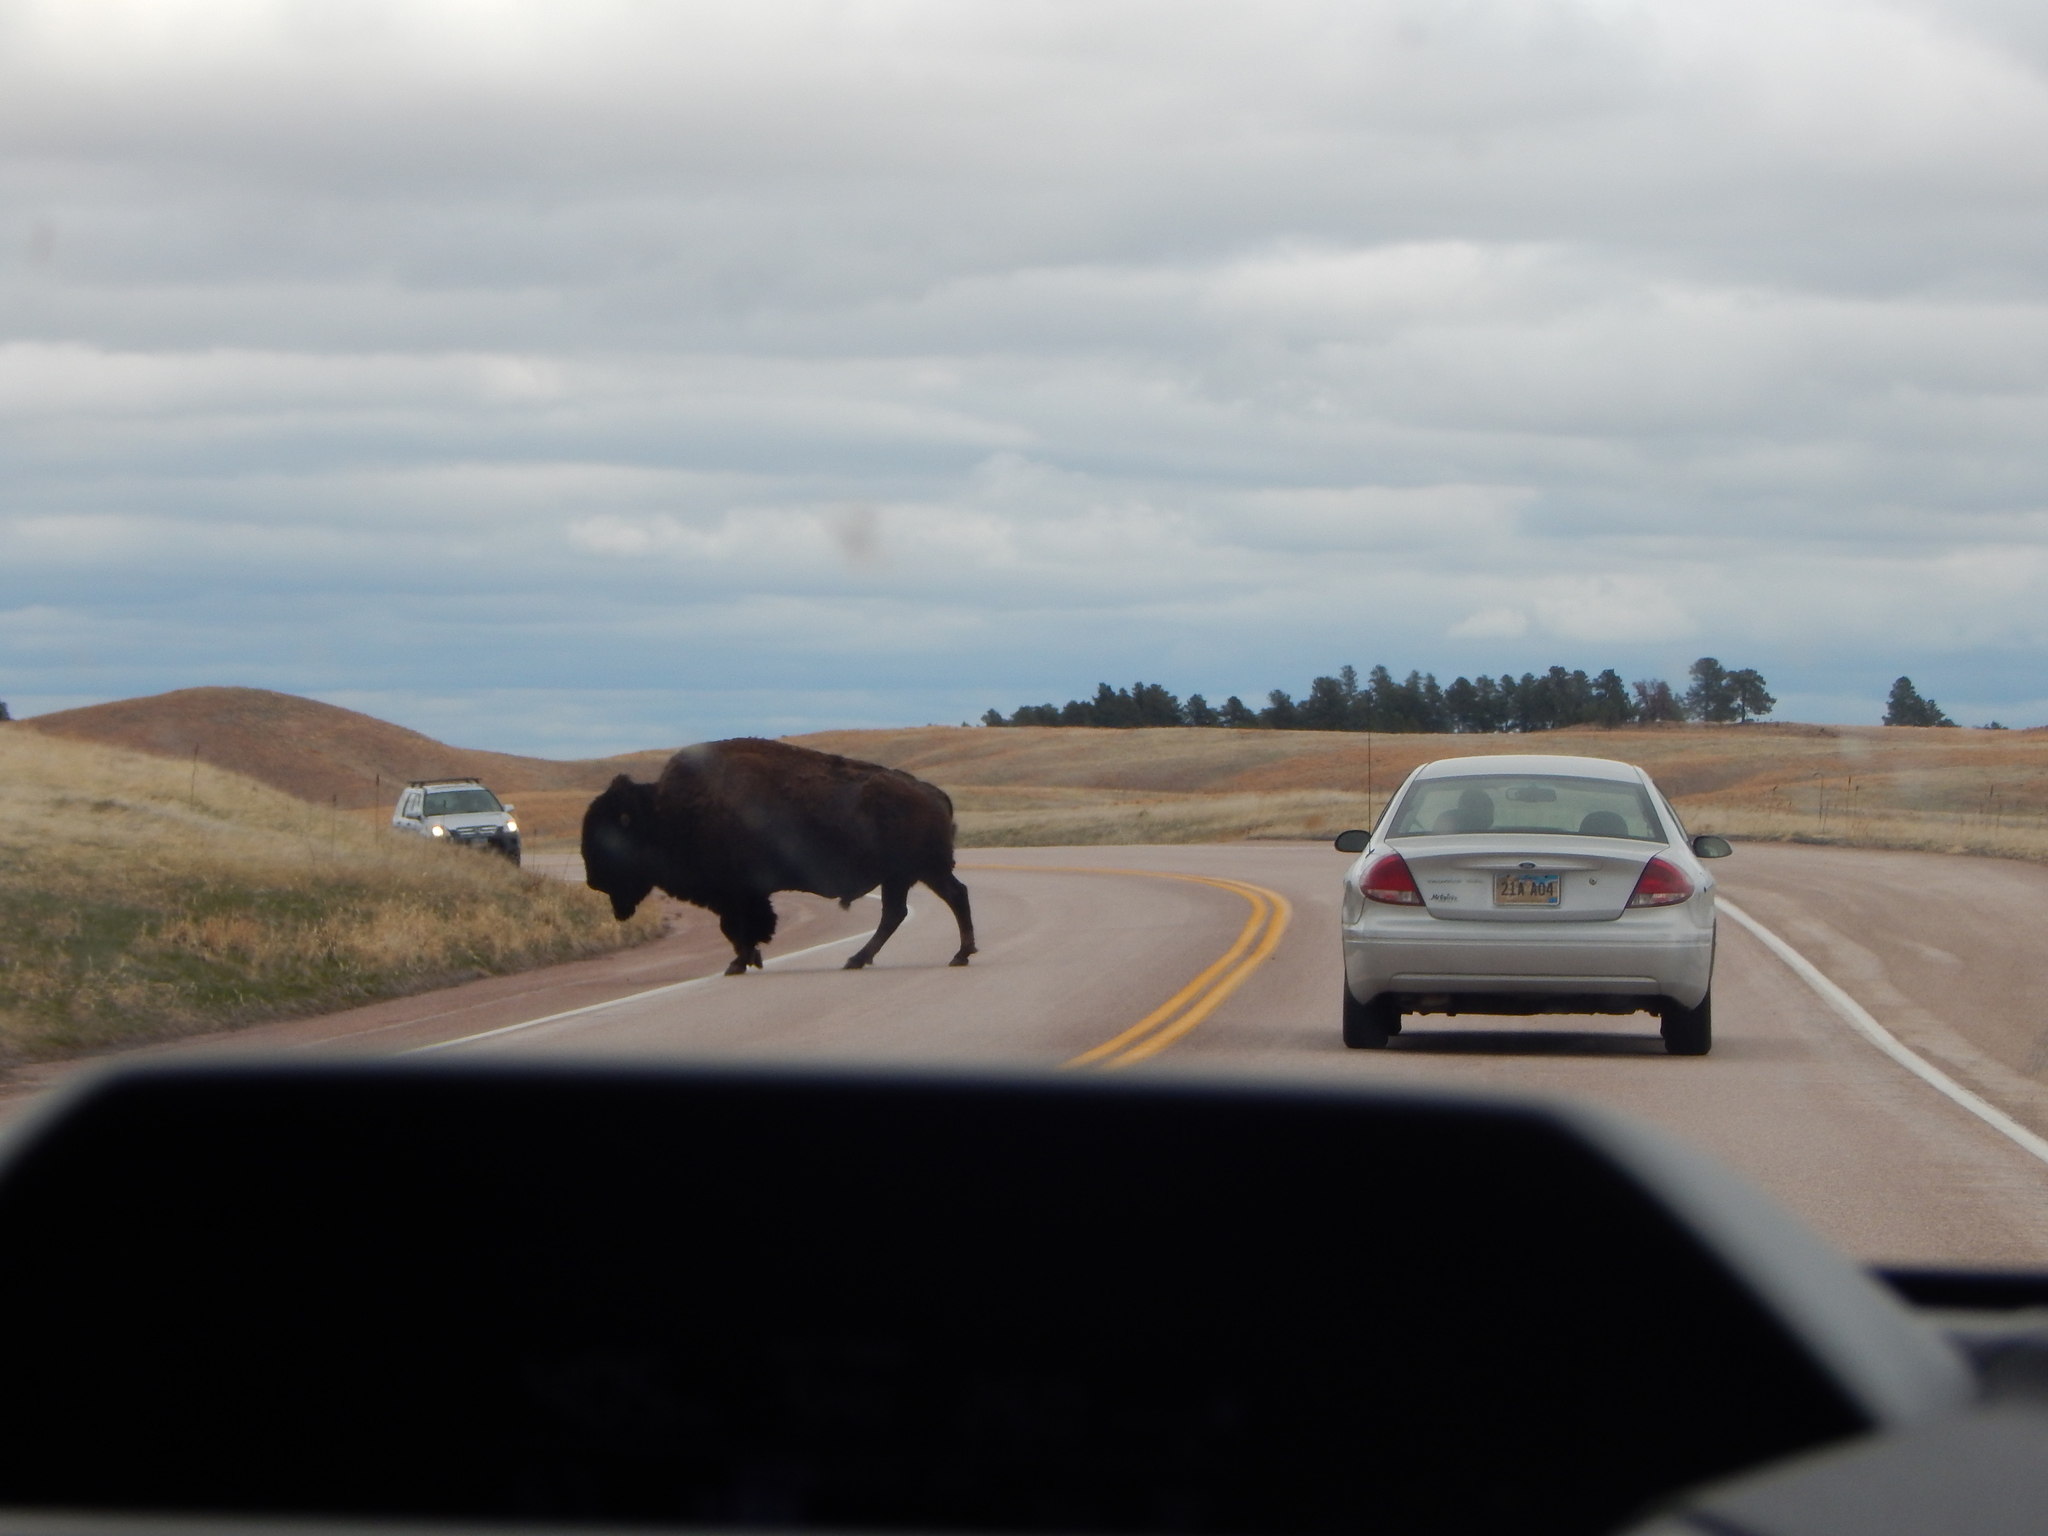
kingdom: Animalia
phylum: Chordata
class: Mammalia
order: Artiodactyla
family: Bovidae
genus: Bison
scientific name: Bison bison
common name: American bison
